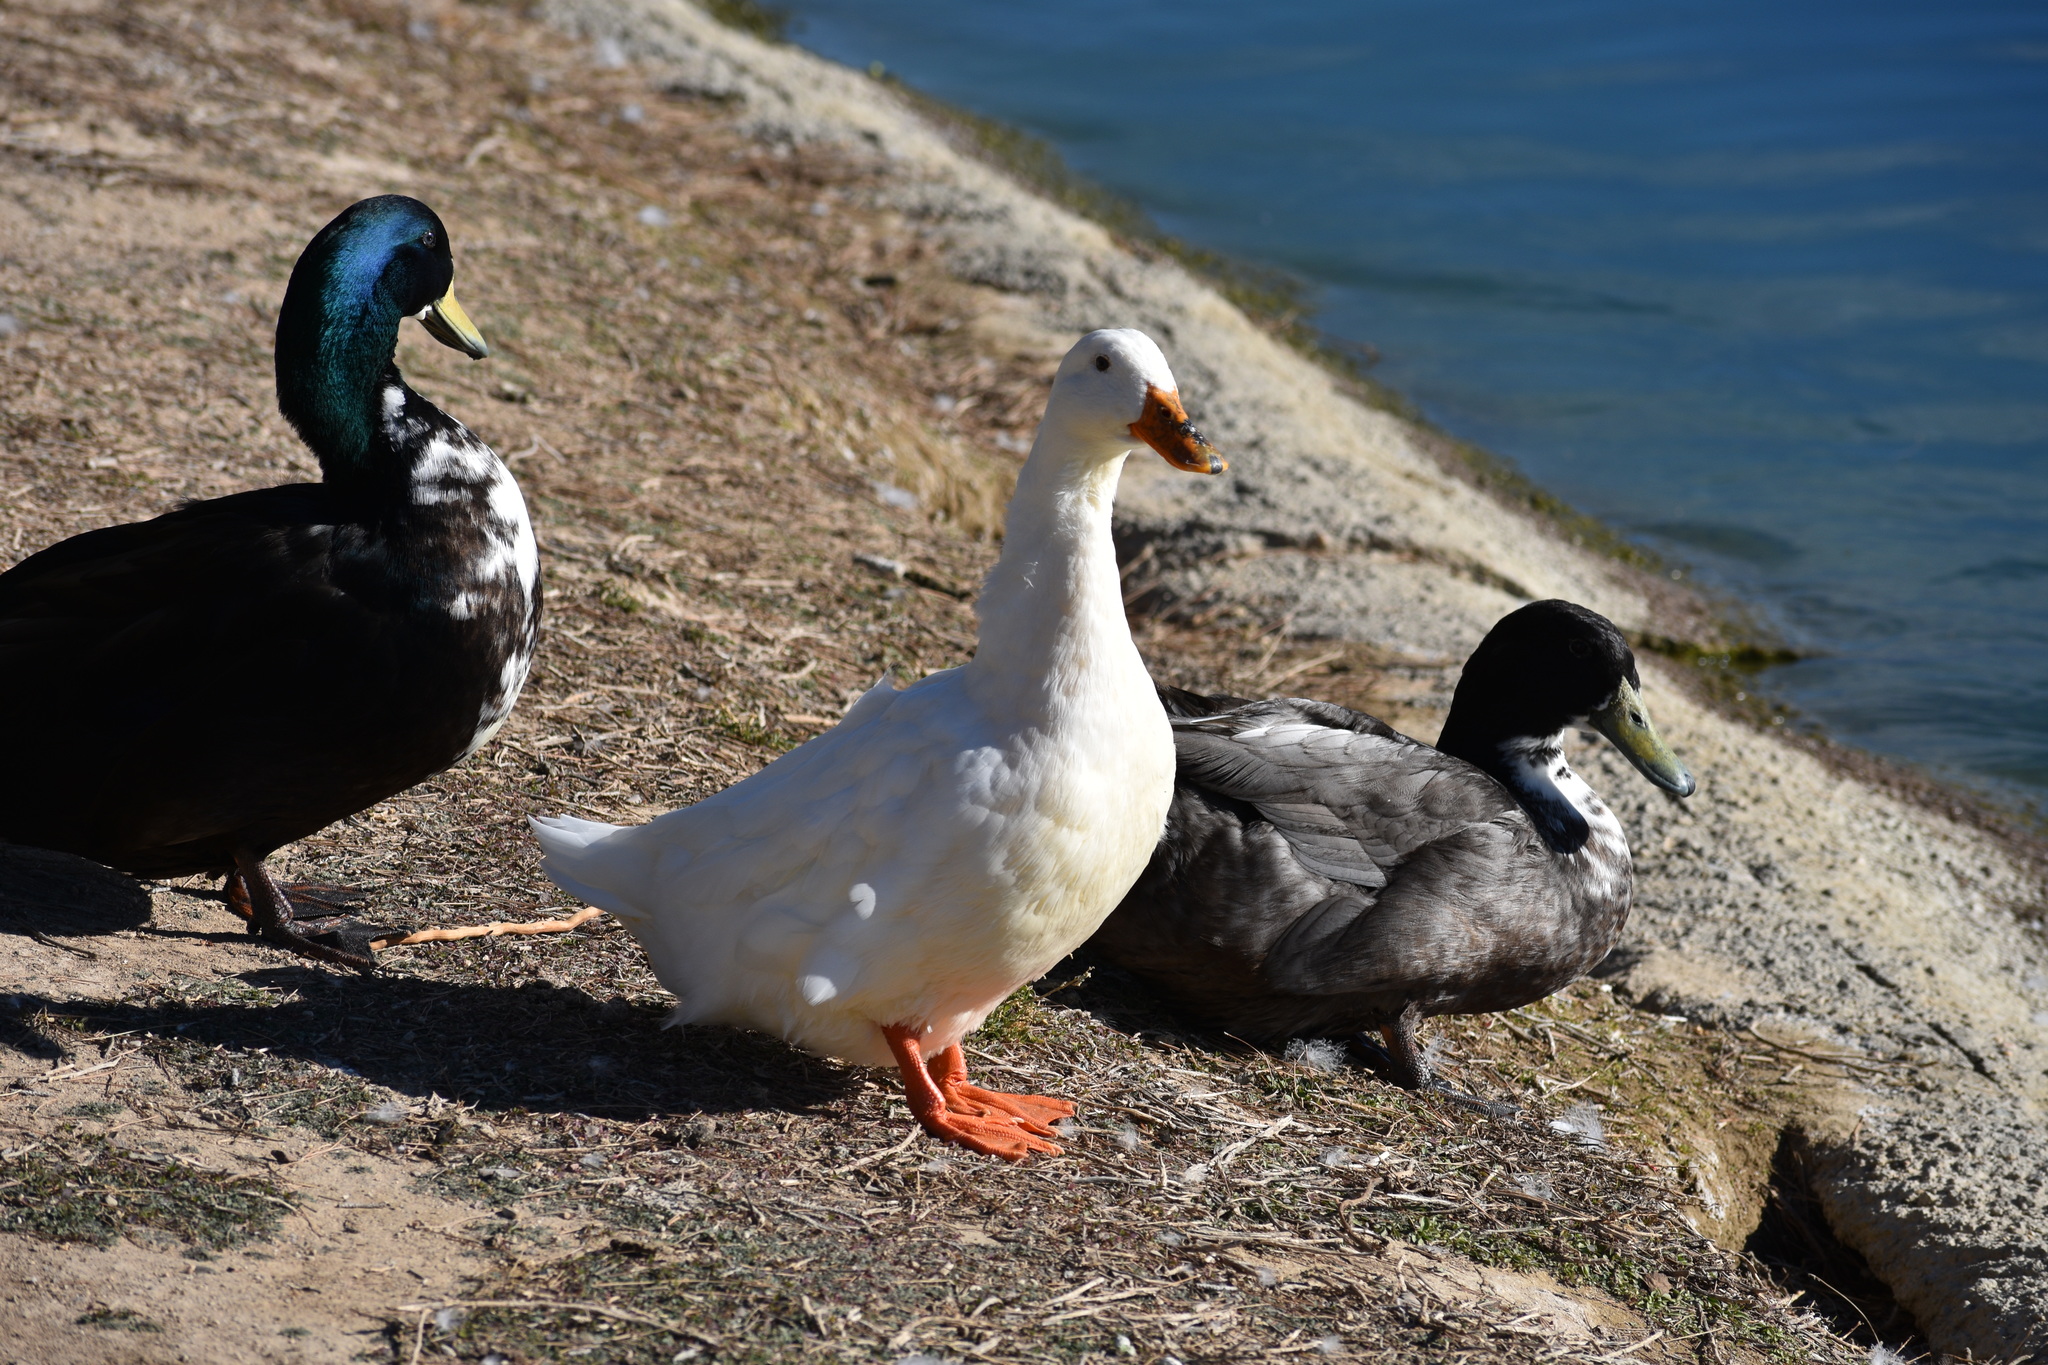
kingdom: Animalia
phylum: Chordata
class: Aves
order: Anseriformes
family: Anatidae
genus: Anas
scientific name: Anas platyrhynchos
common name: Mallard
